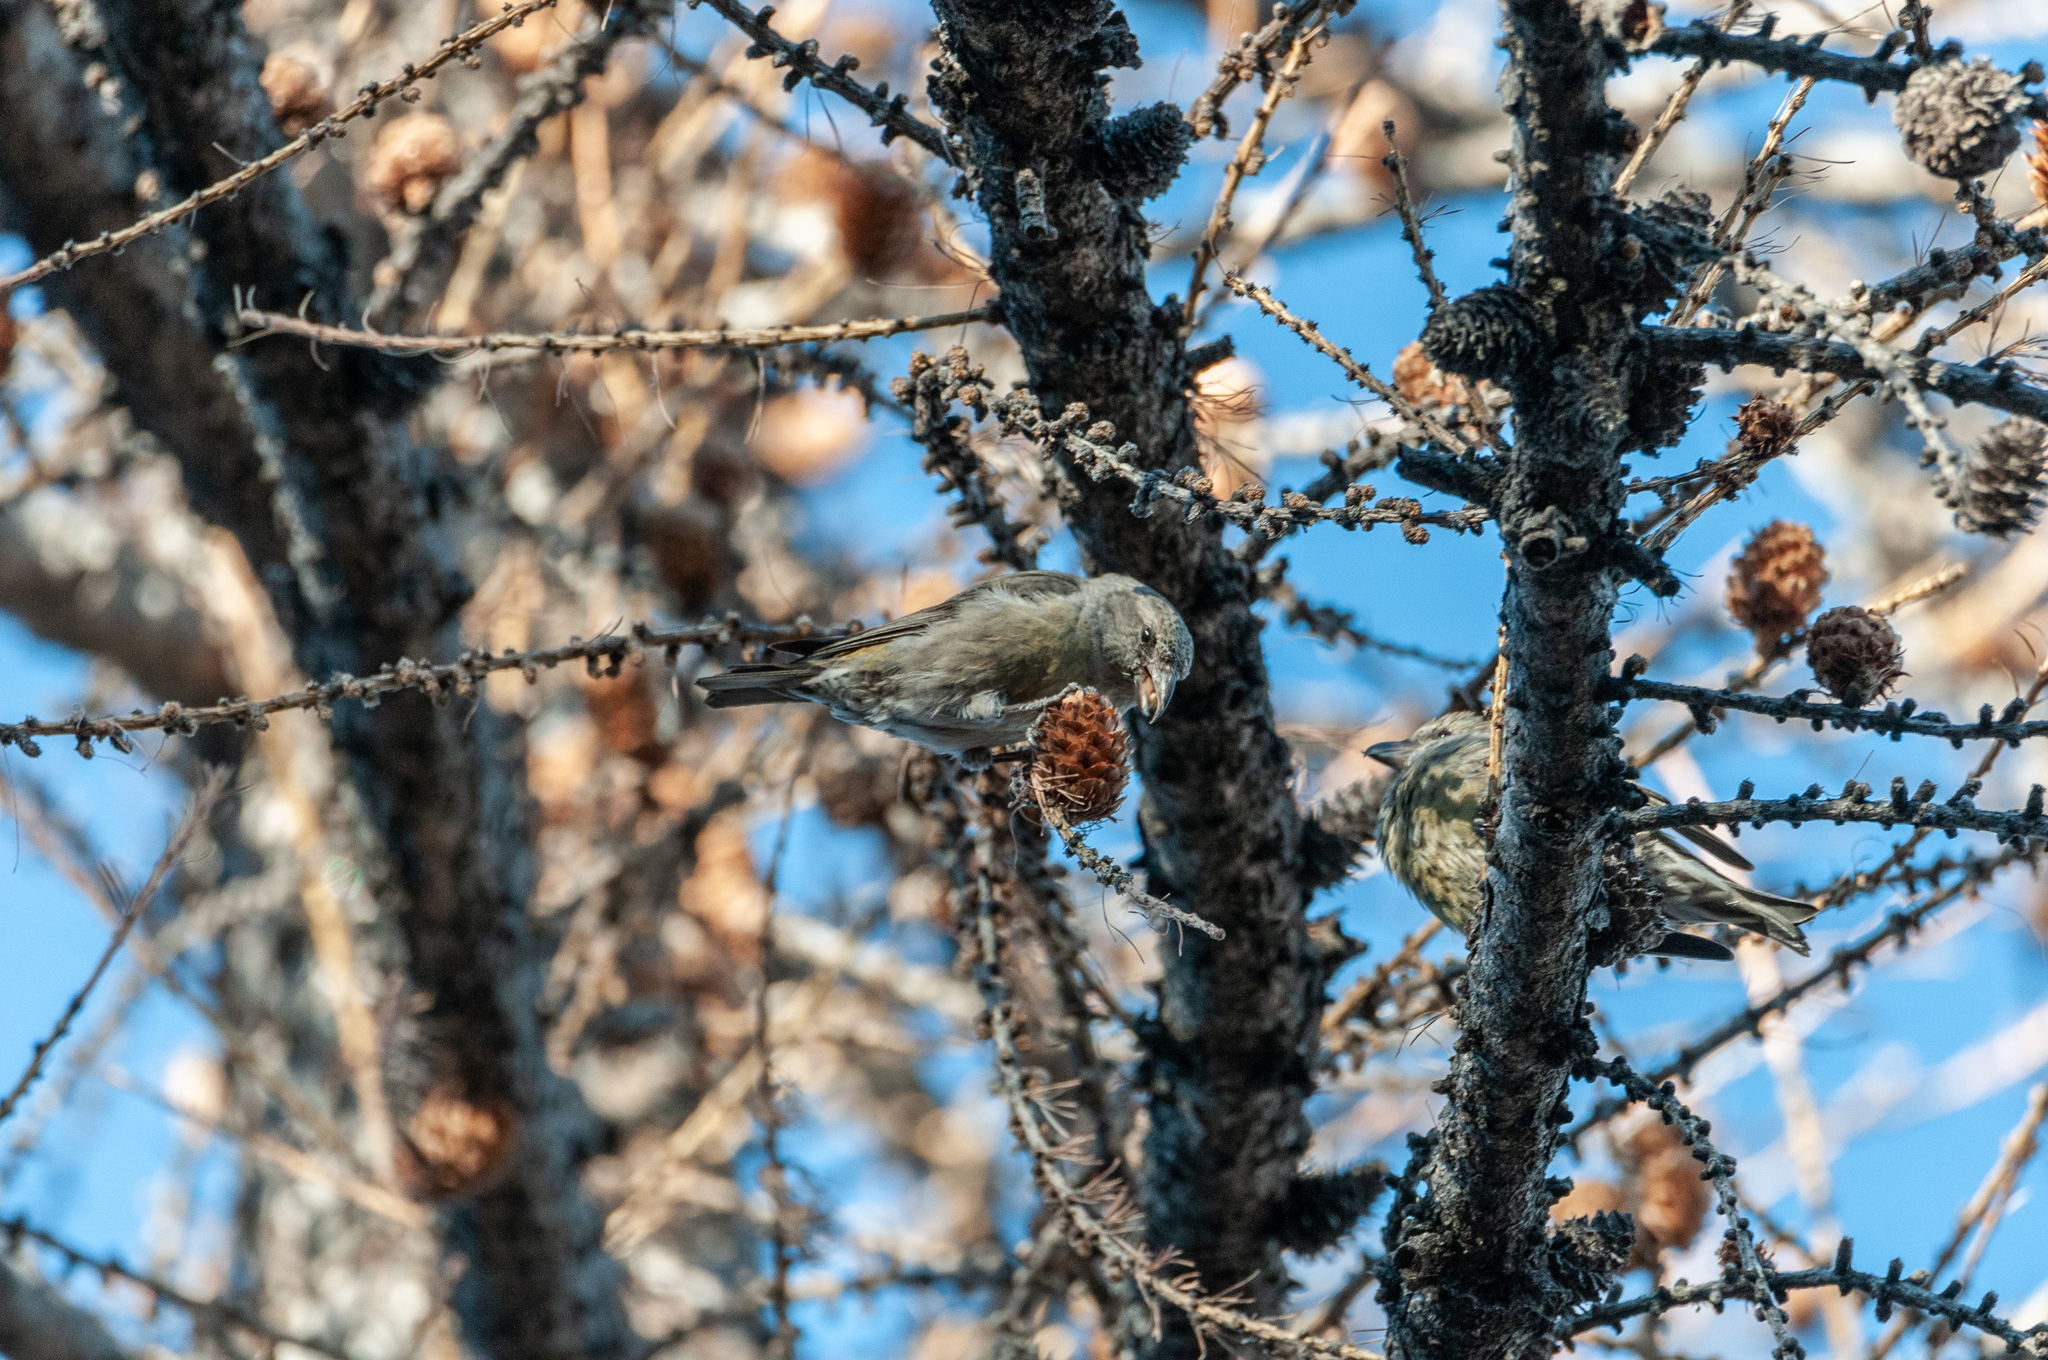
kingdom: Animalia
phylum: Chordata
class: Aves
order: Passeriformes
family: Fringillidae
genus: Loxia
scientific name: Loxia curvirostra
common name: Red crossbill
